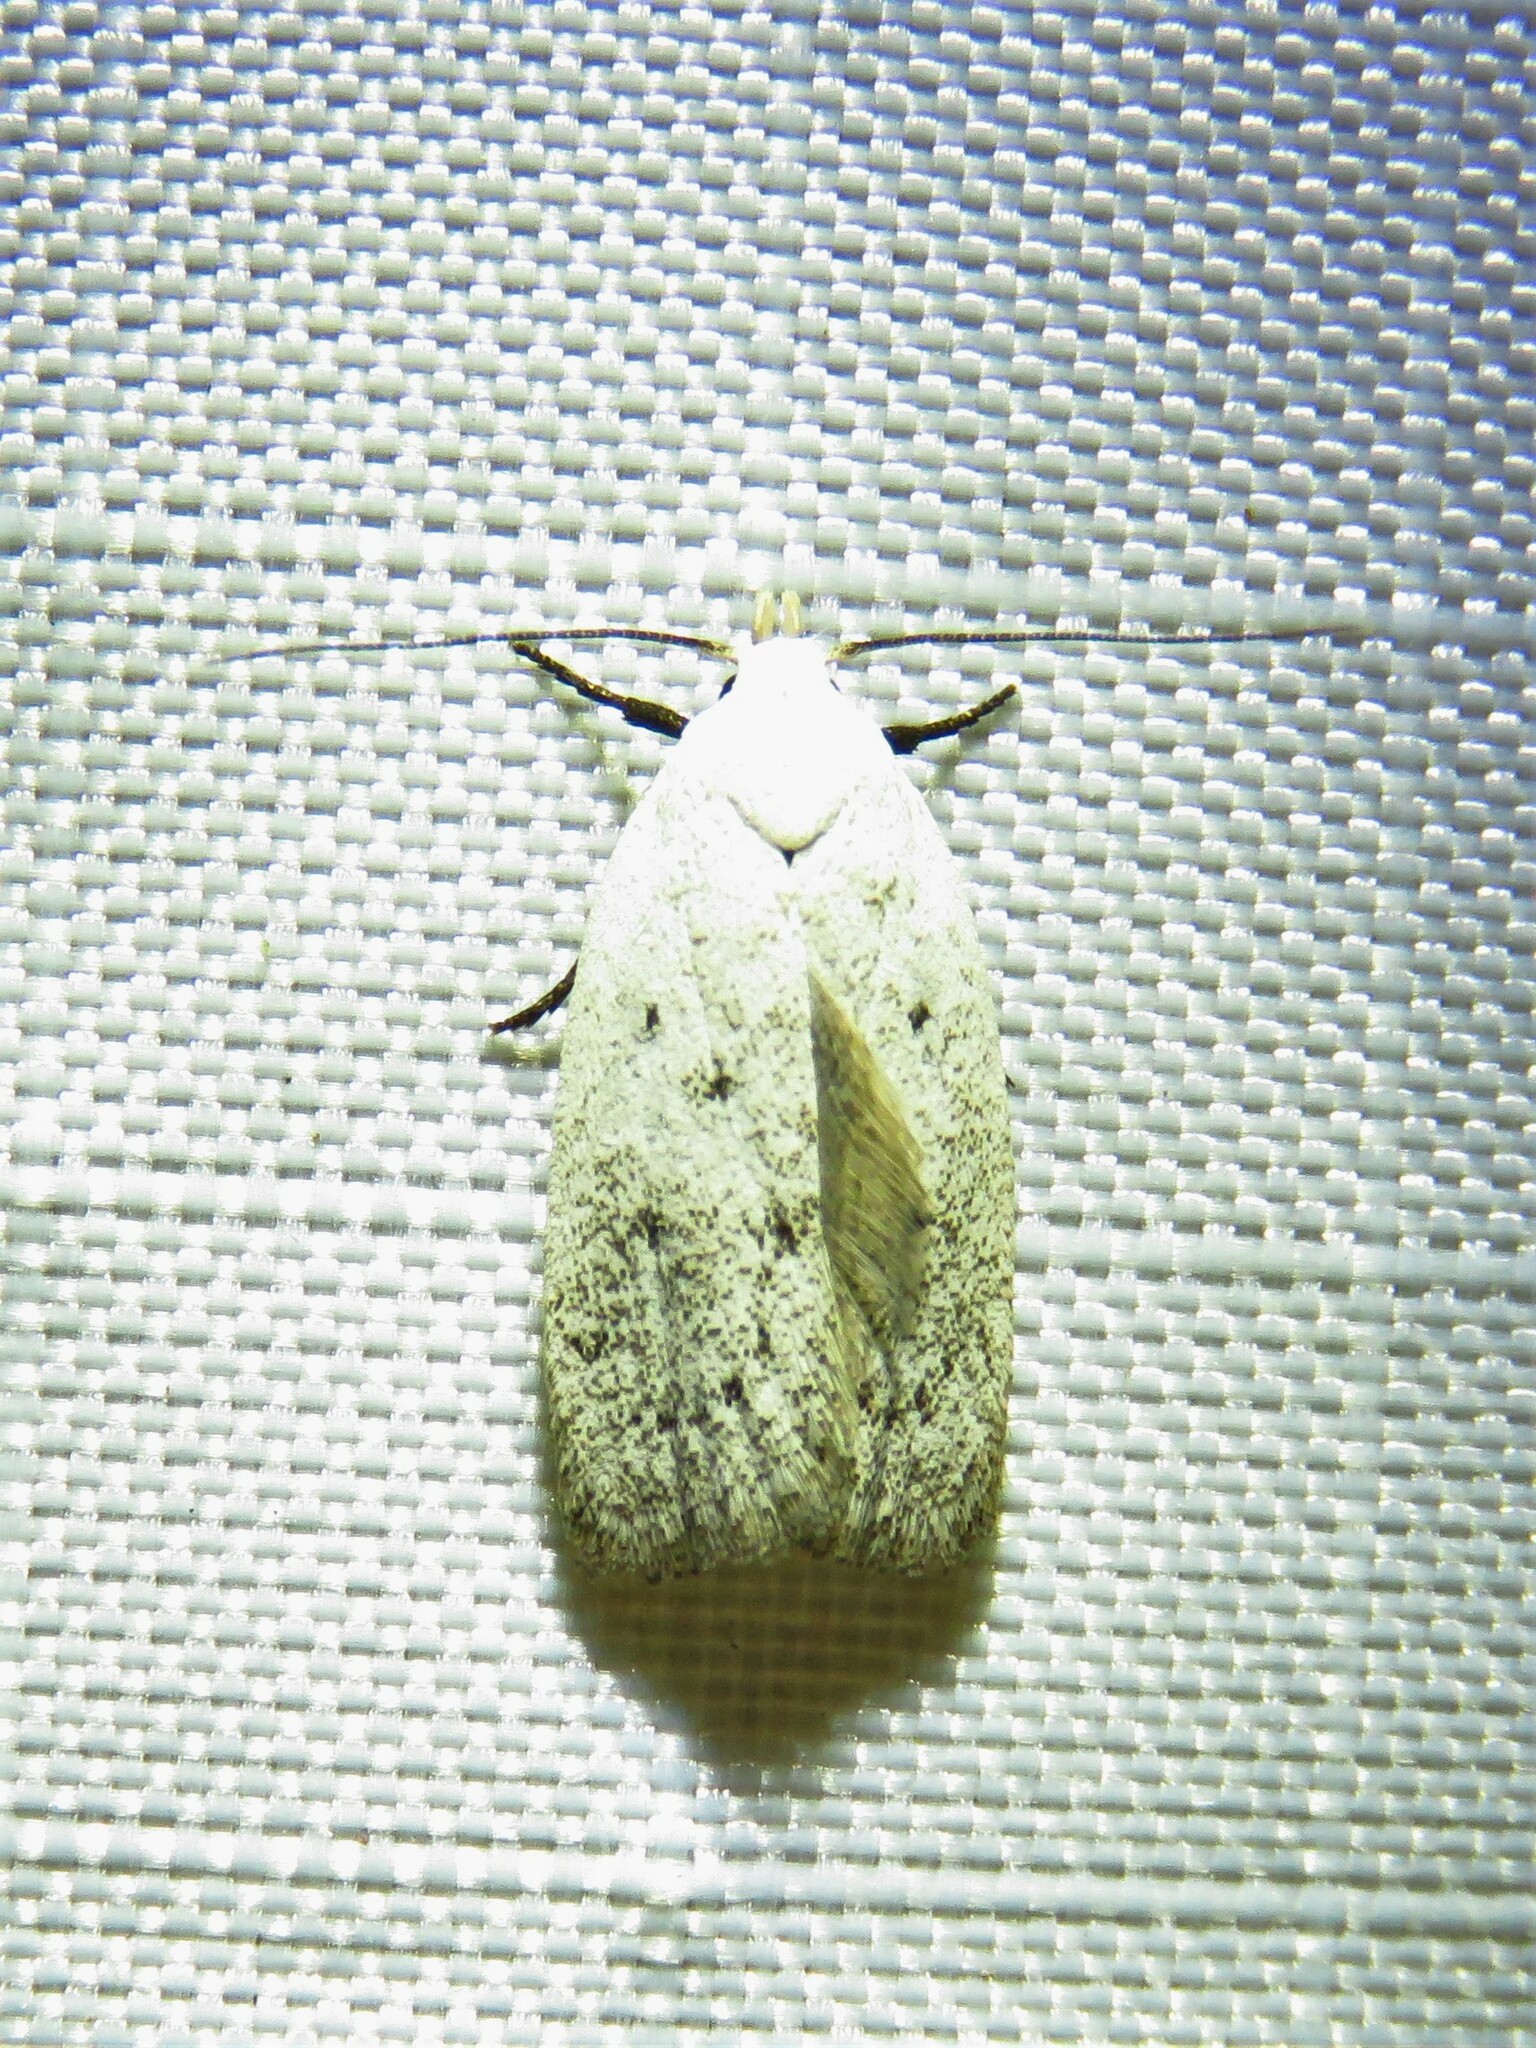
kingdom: Animalia
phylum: Arthropoda
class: Insecta
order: Lepidoptera
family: Oecophoridae
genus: Inga
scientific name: Inga cretacea
